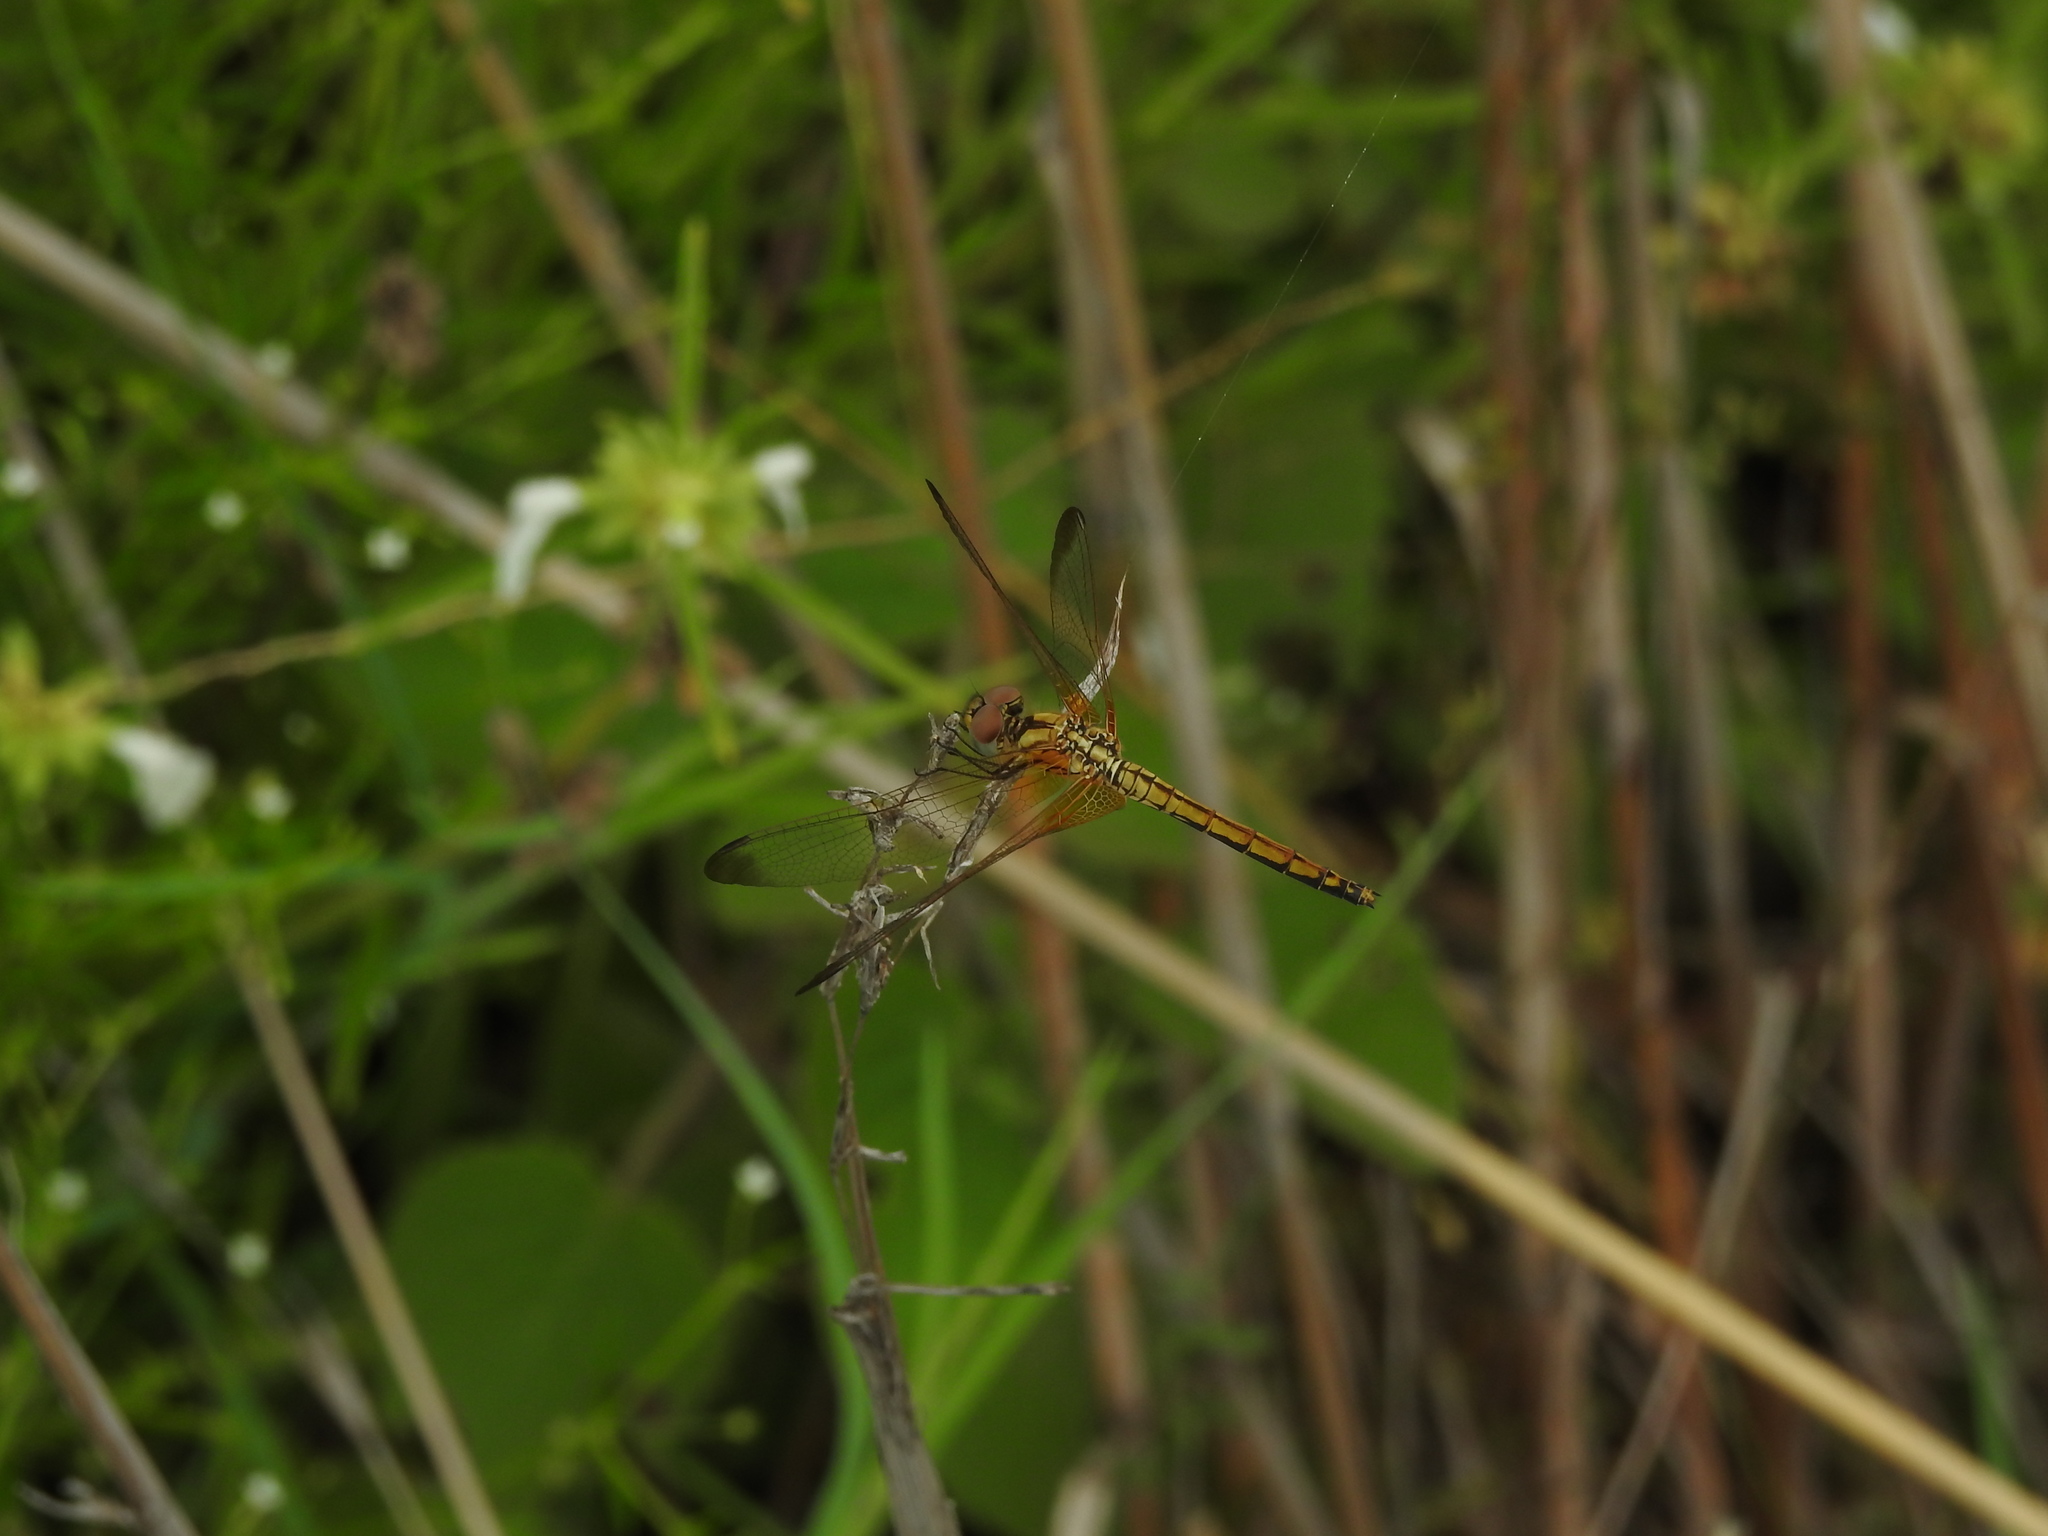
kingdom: Animalia
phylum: Arthropoda
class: Insecta
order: Odonata
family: Libellulidae
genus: Trithemis
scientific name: Trithemis aurora
